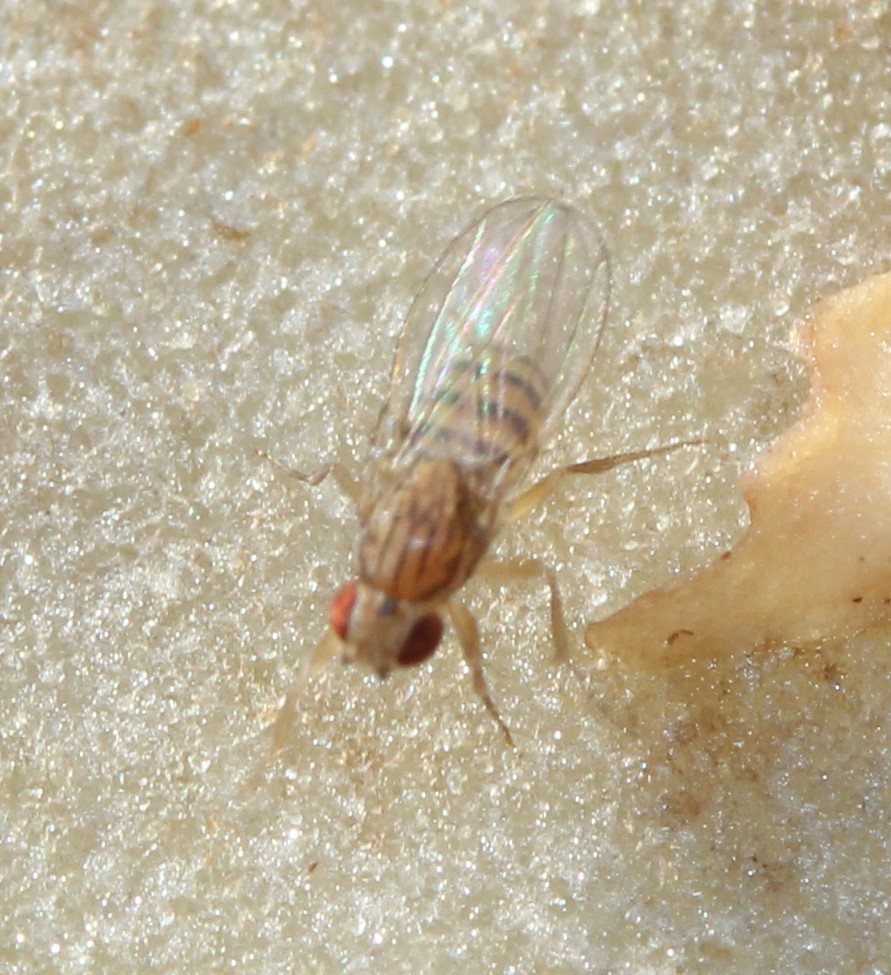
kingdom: Animalia
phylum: Arthropoda
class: Insecta
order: Diptera
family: Drosophilidae
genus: Drosophila
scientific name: Drosophila busckii
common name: Pomace fly
